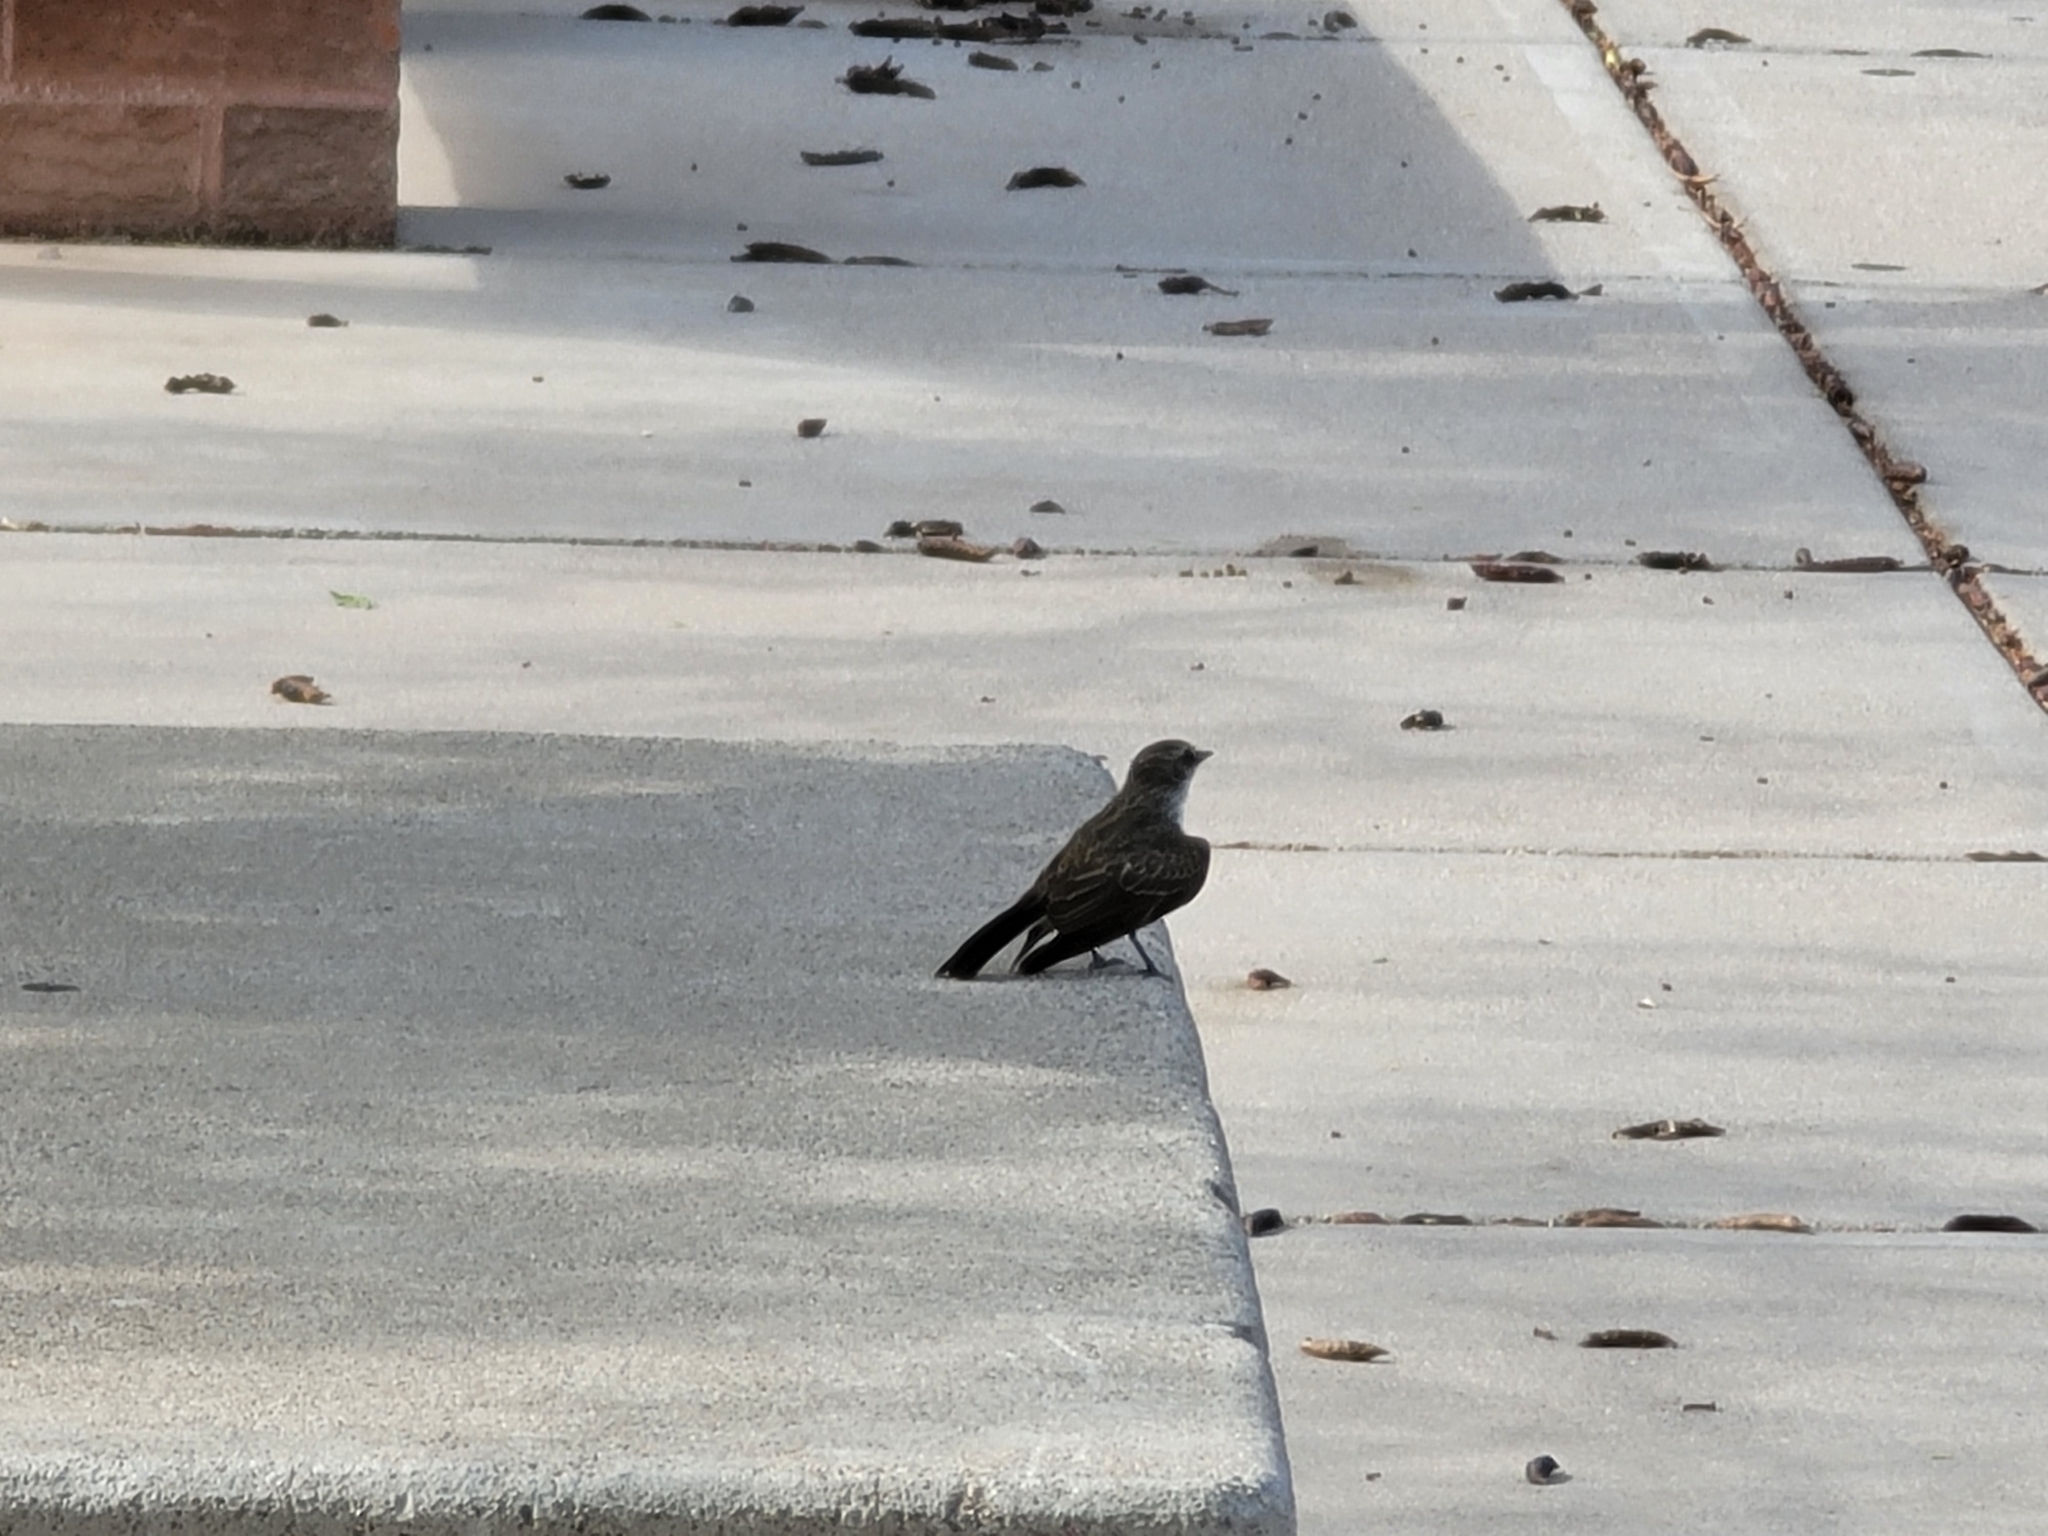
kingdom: Animalia
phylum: Chordata
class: Aves
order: Passeriformes
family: Tyrannidae
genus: Pyrocephalus
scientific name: Pyrocephalus rubinus
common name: Vermilion flycatcher
